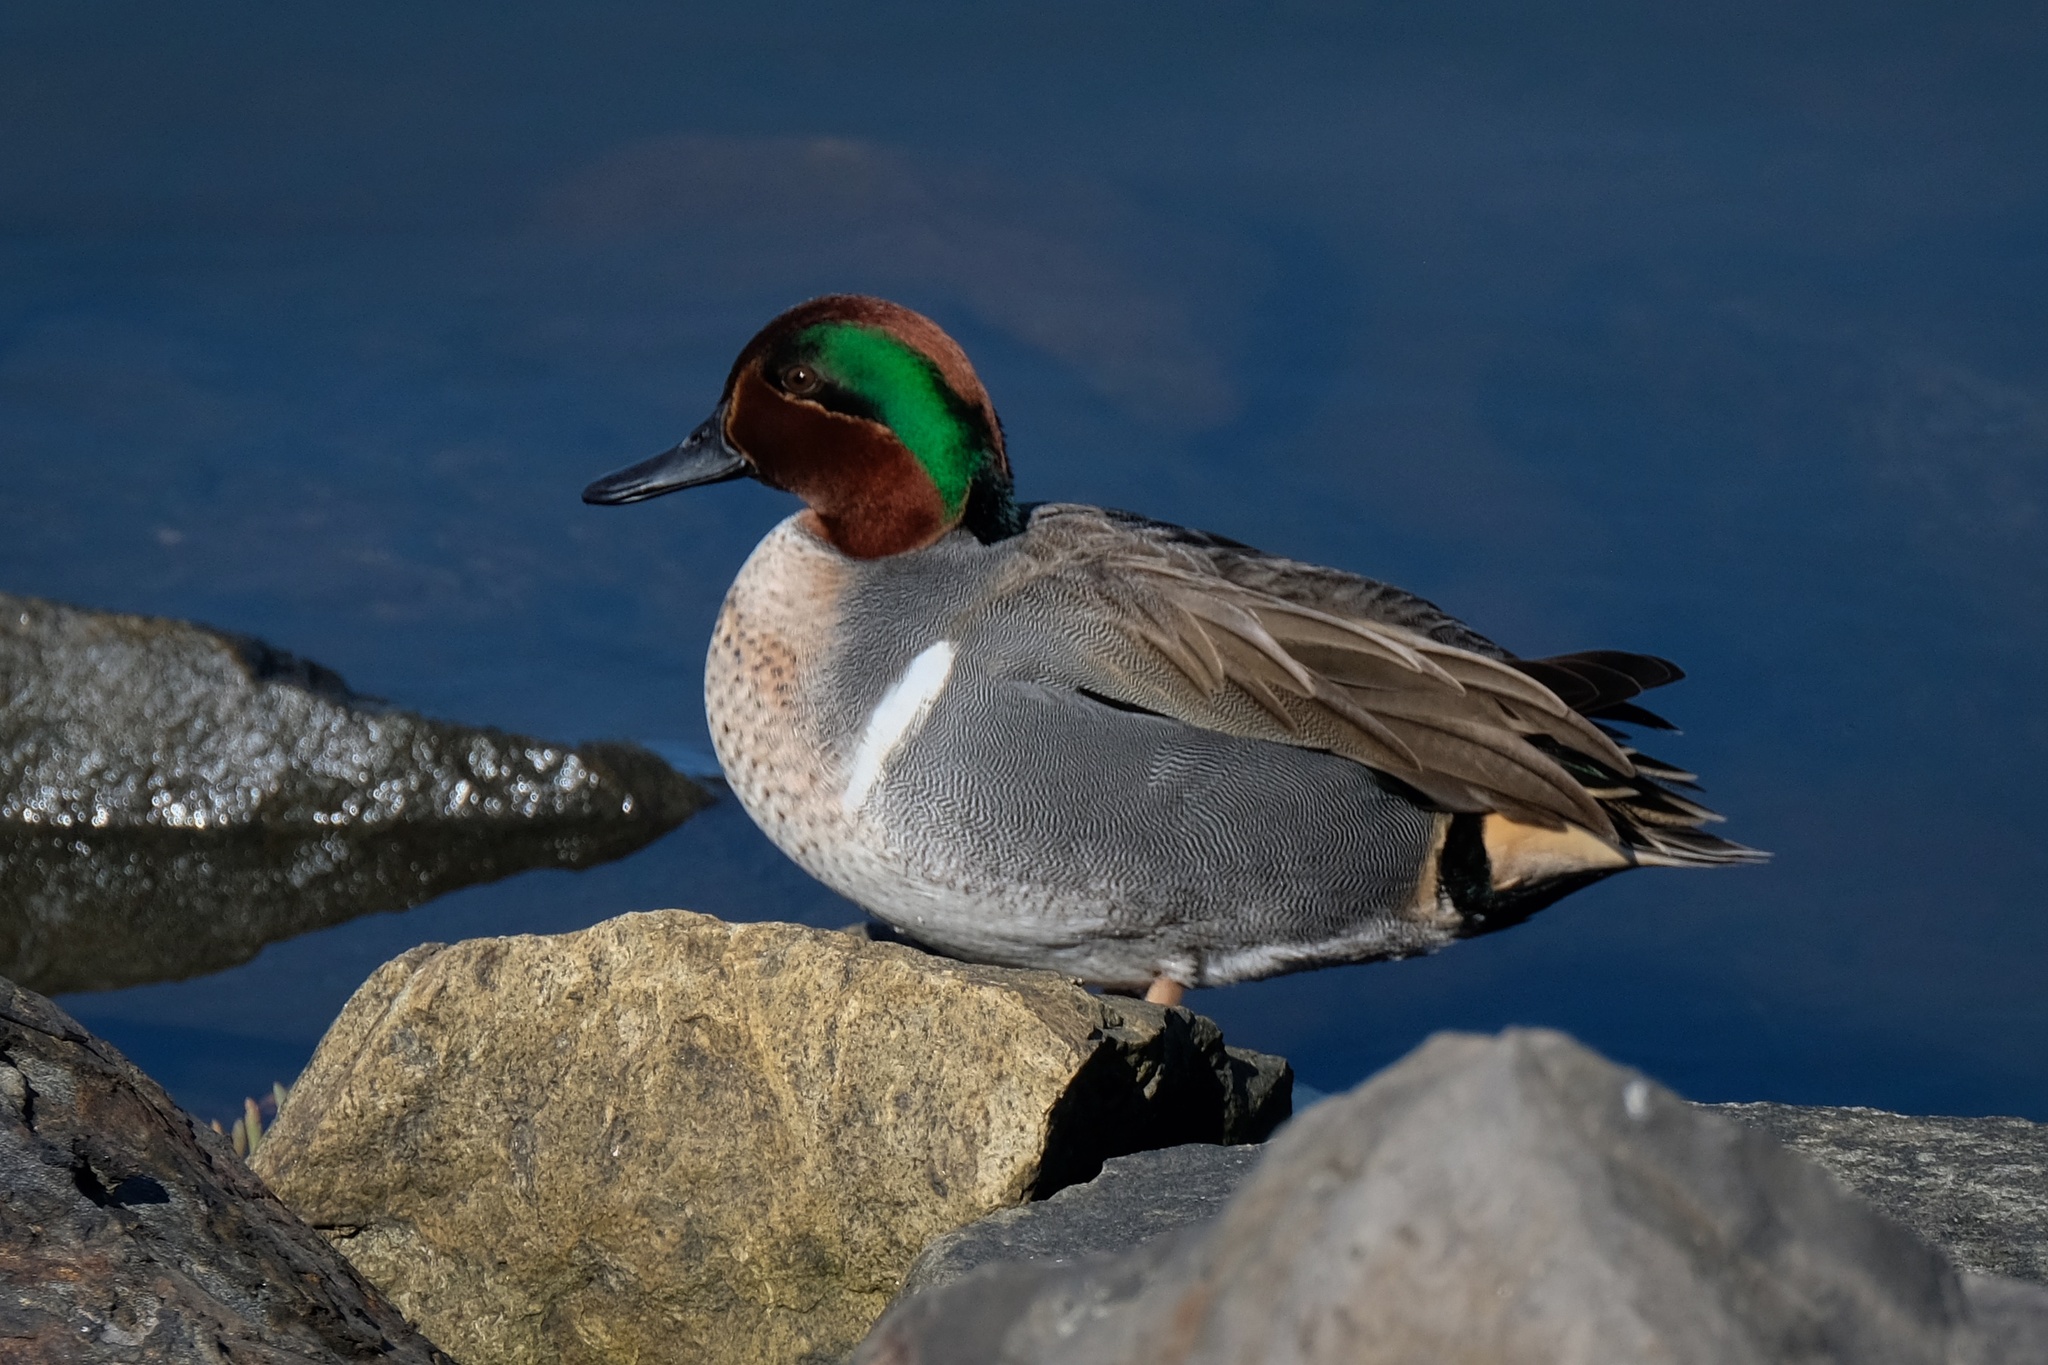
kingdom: Animalia
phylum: Chordata
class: Aves
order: Anseriformes
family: Anatidae
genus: Anas
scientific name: Anas crecca
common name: Eurasian teal
